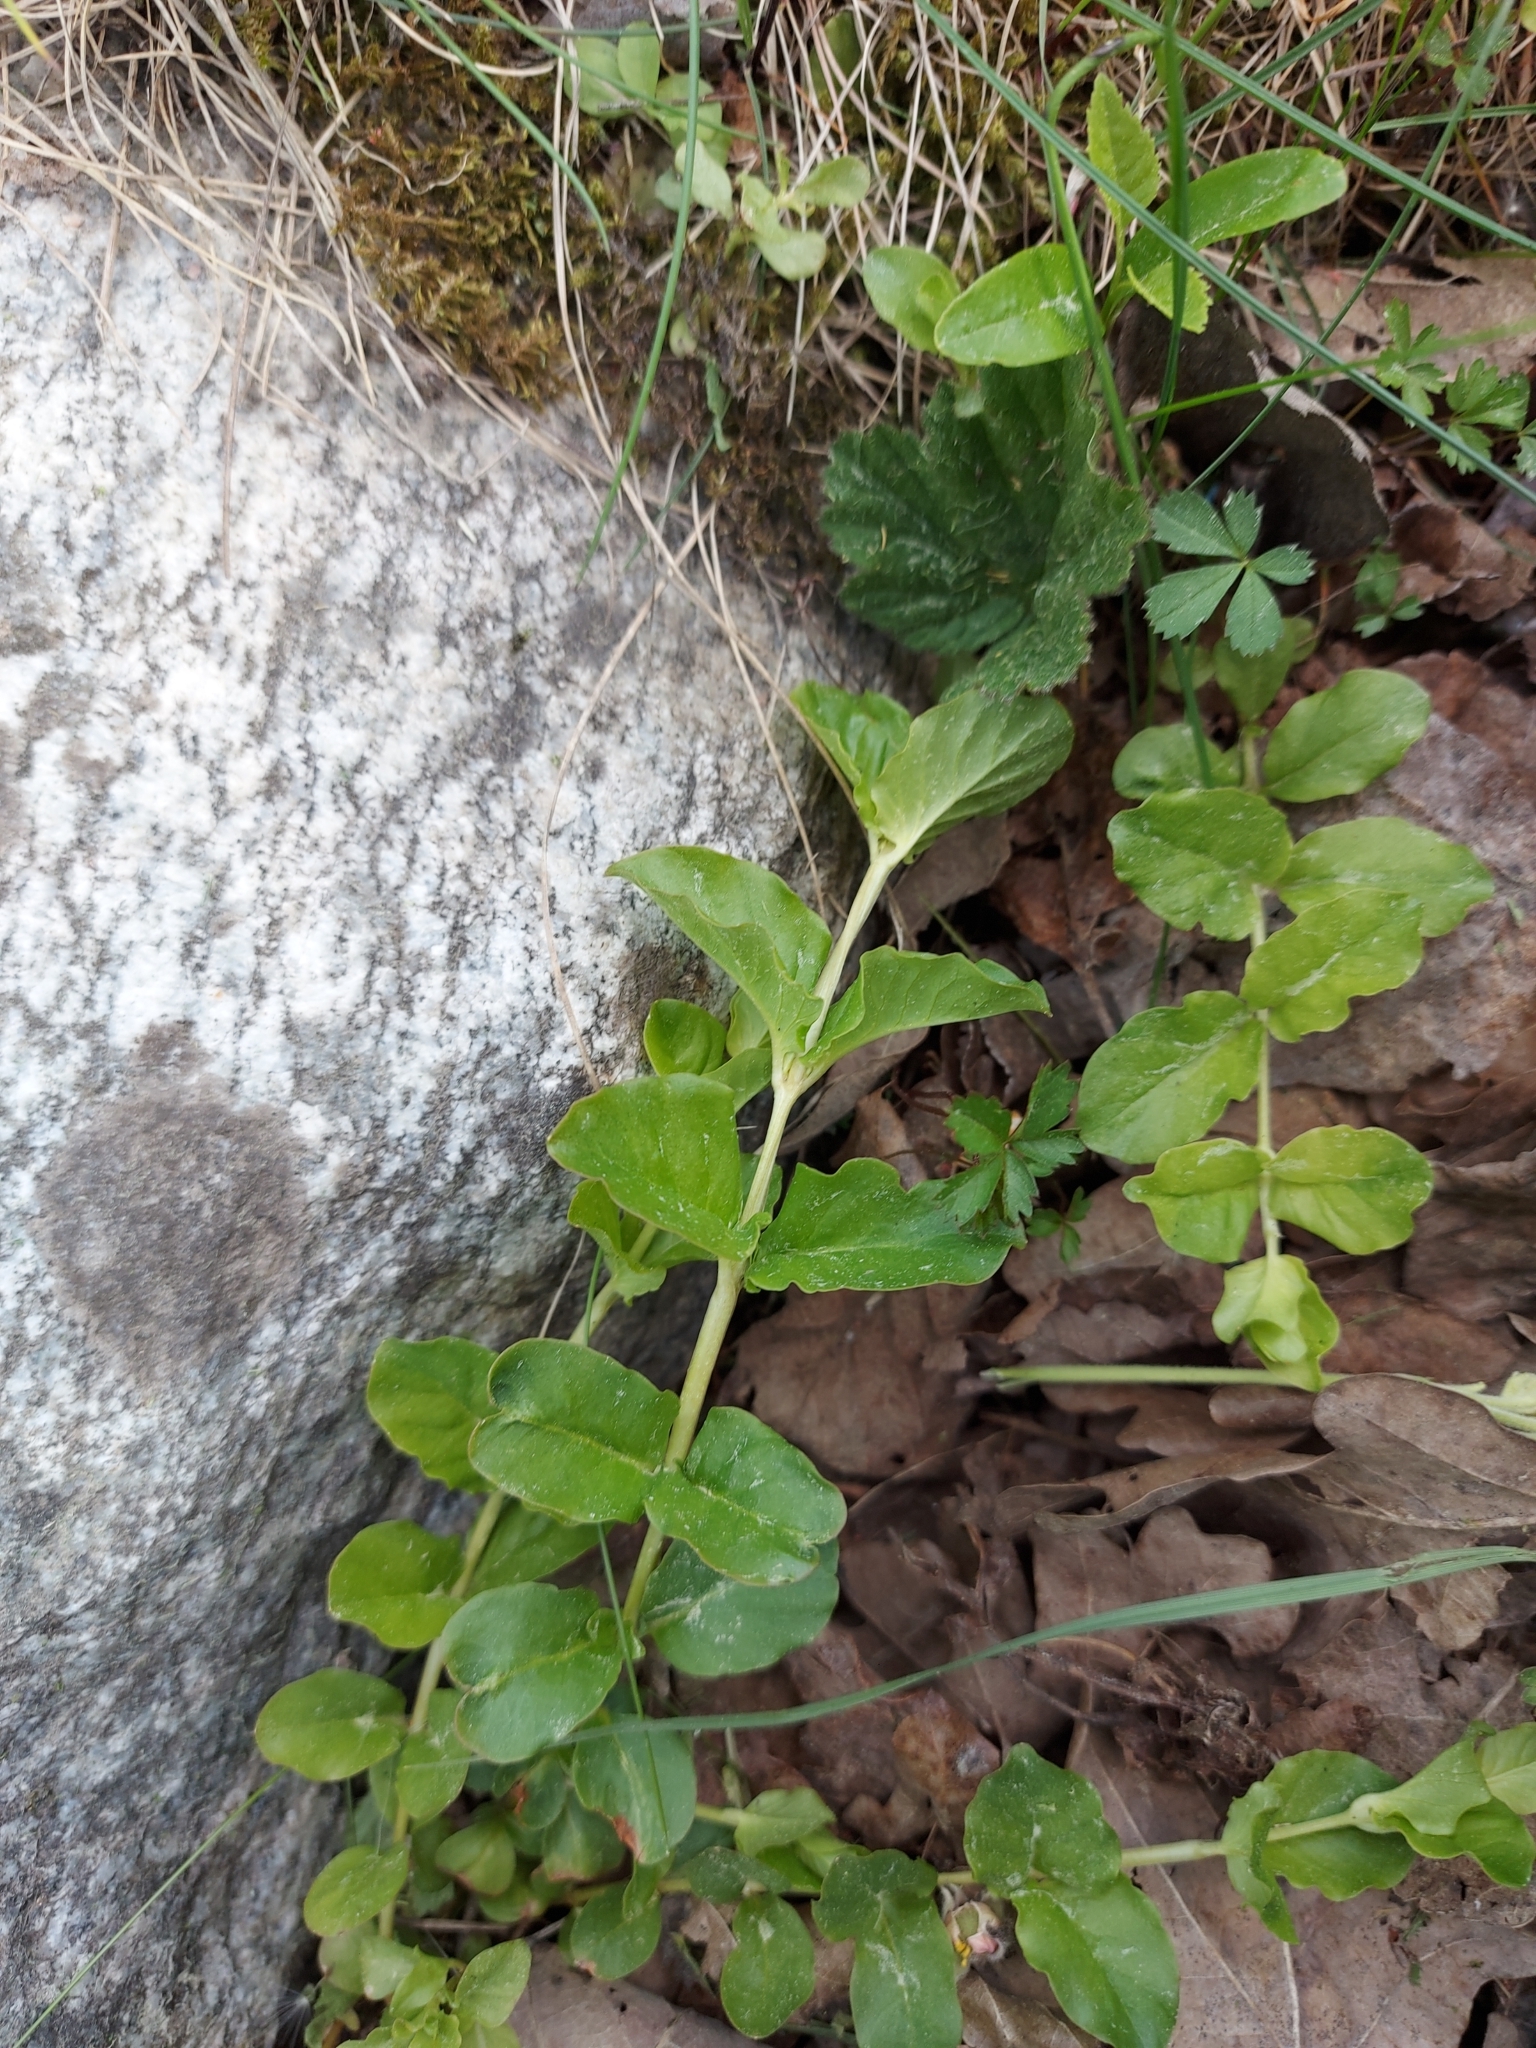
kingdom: Plantae
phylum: Tracheophyta
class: Magnoliopsida
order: Ericales
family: Primulaceae
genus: Lysimachia
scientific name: Lysimachia nummularia
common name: Moneywort
